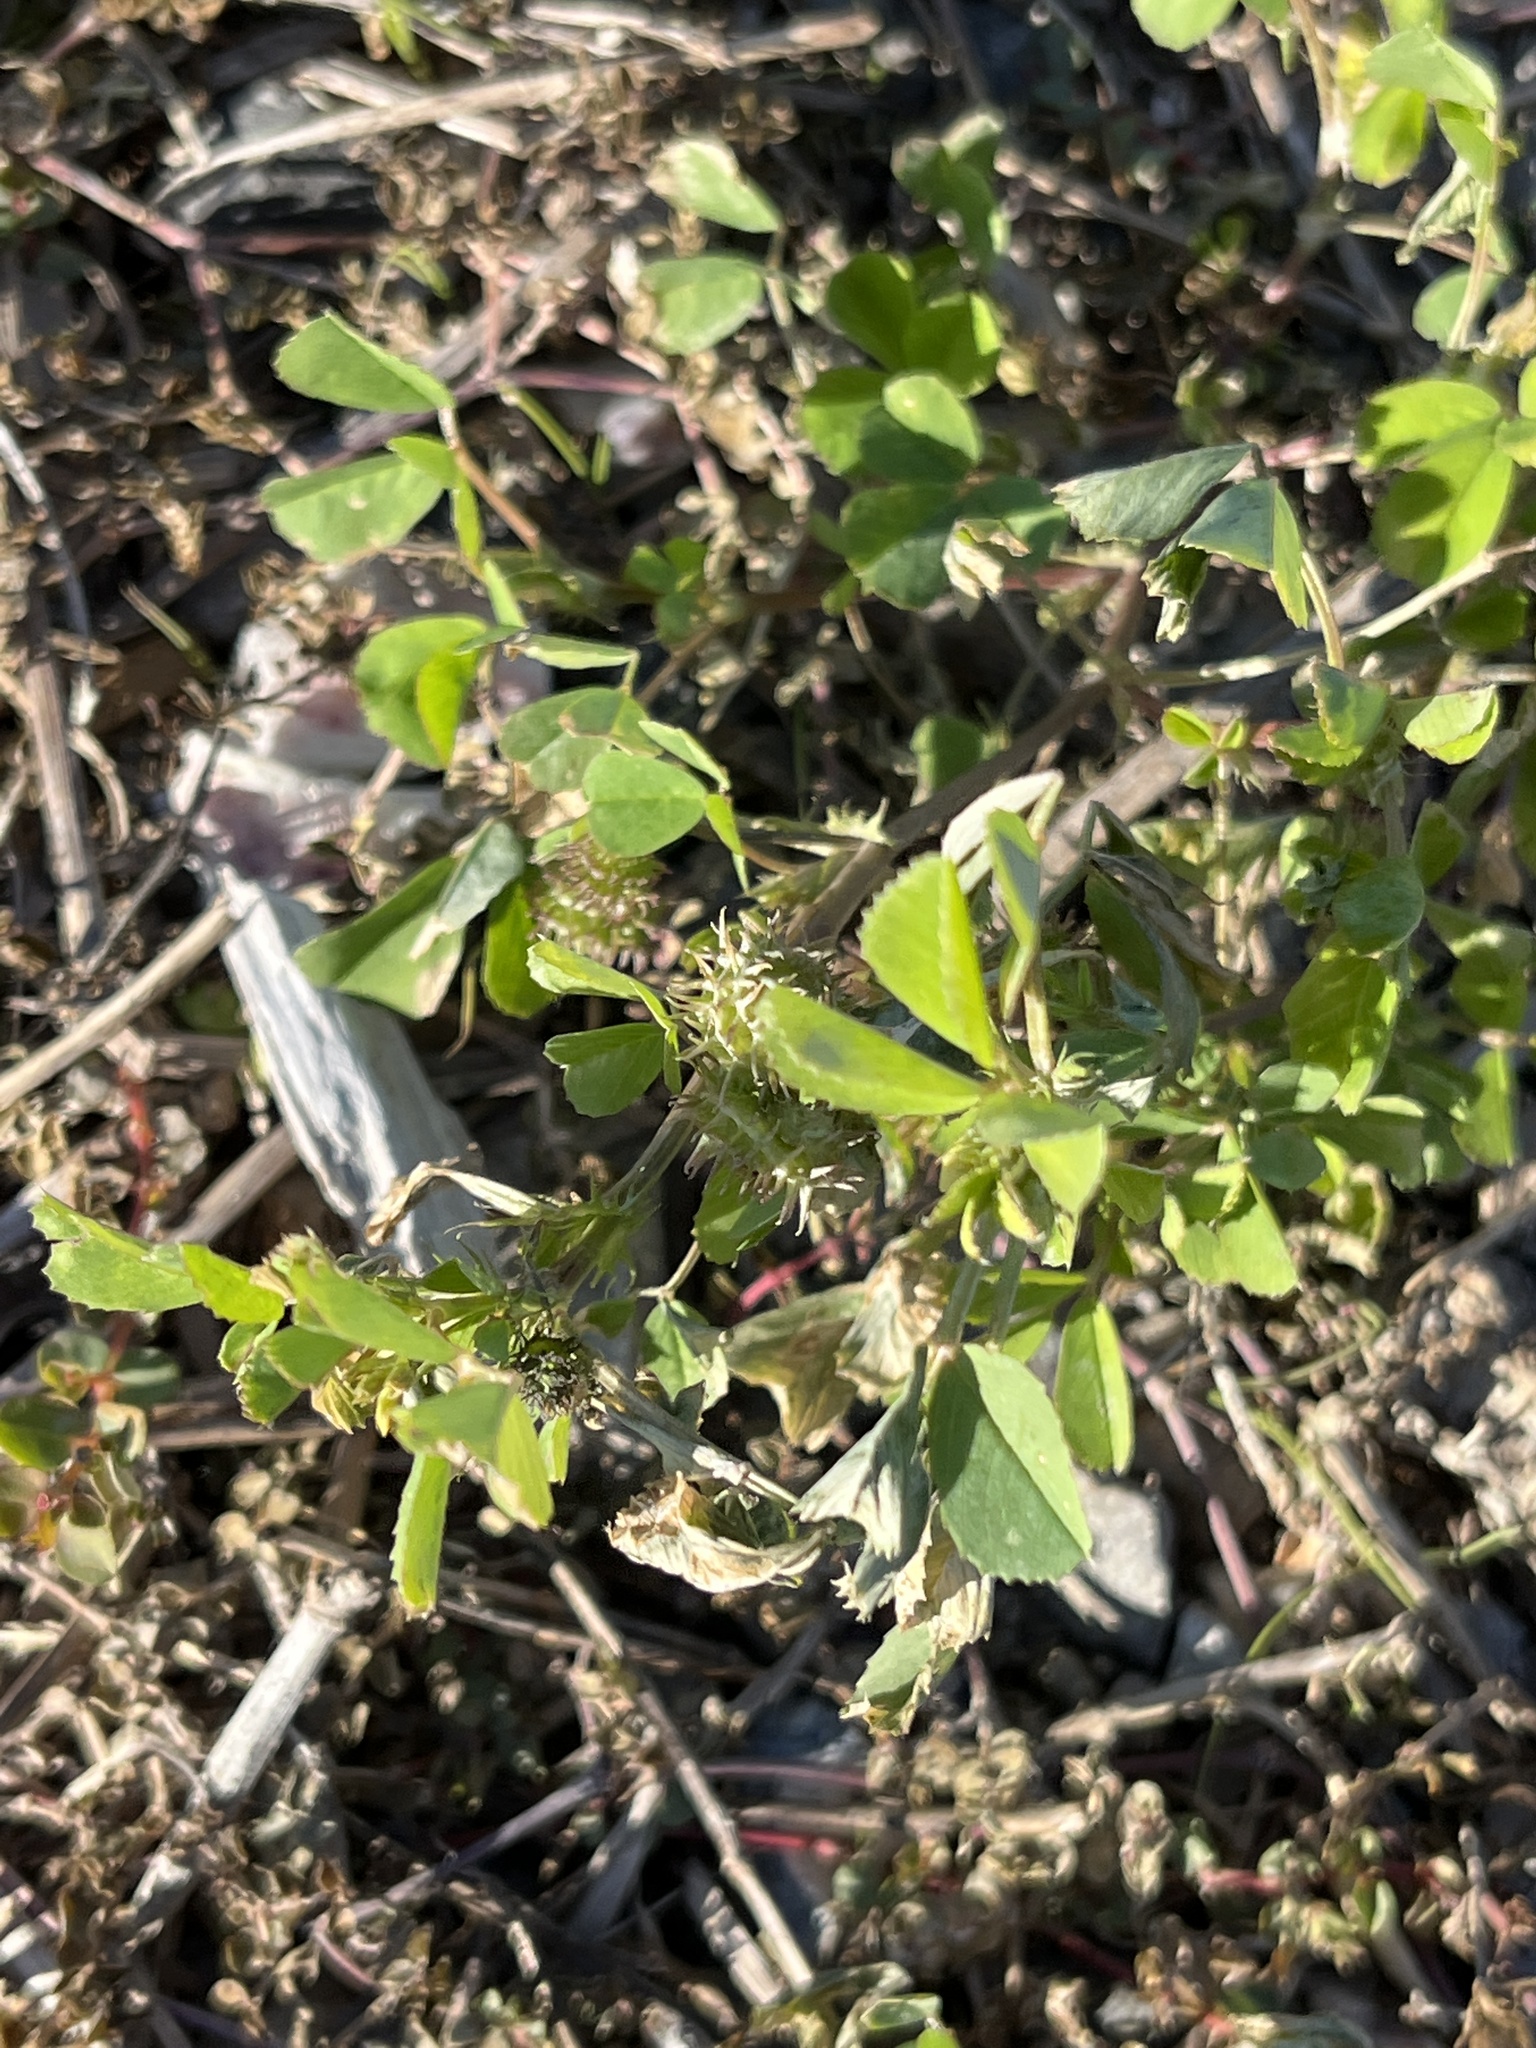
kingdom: Plantae
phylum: Tracheophyta
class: Magnoliopsida
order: Fabales
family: Fabaceae
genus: Medicago
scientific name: Medicago polymorpha
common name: Burclover
